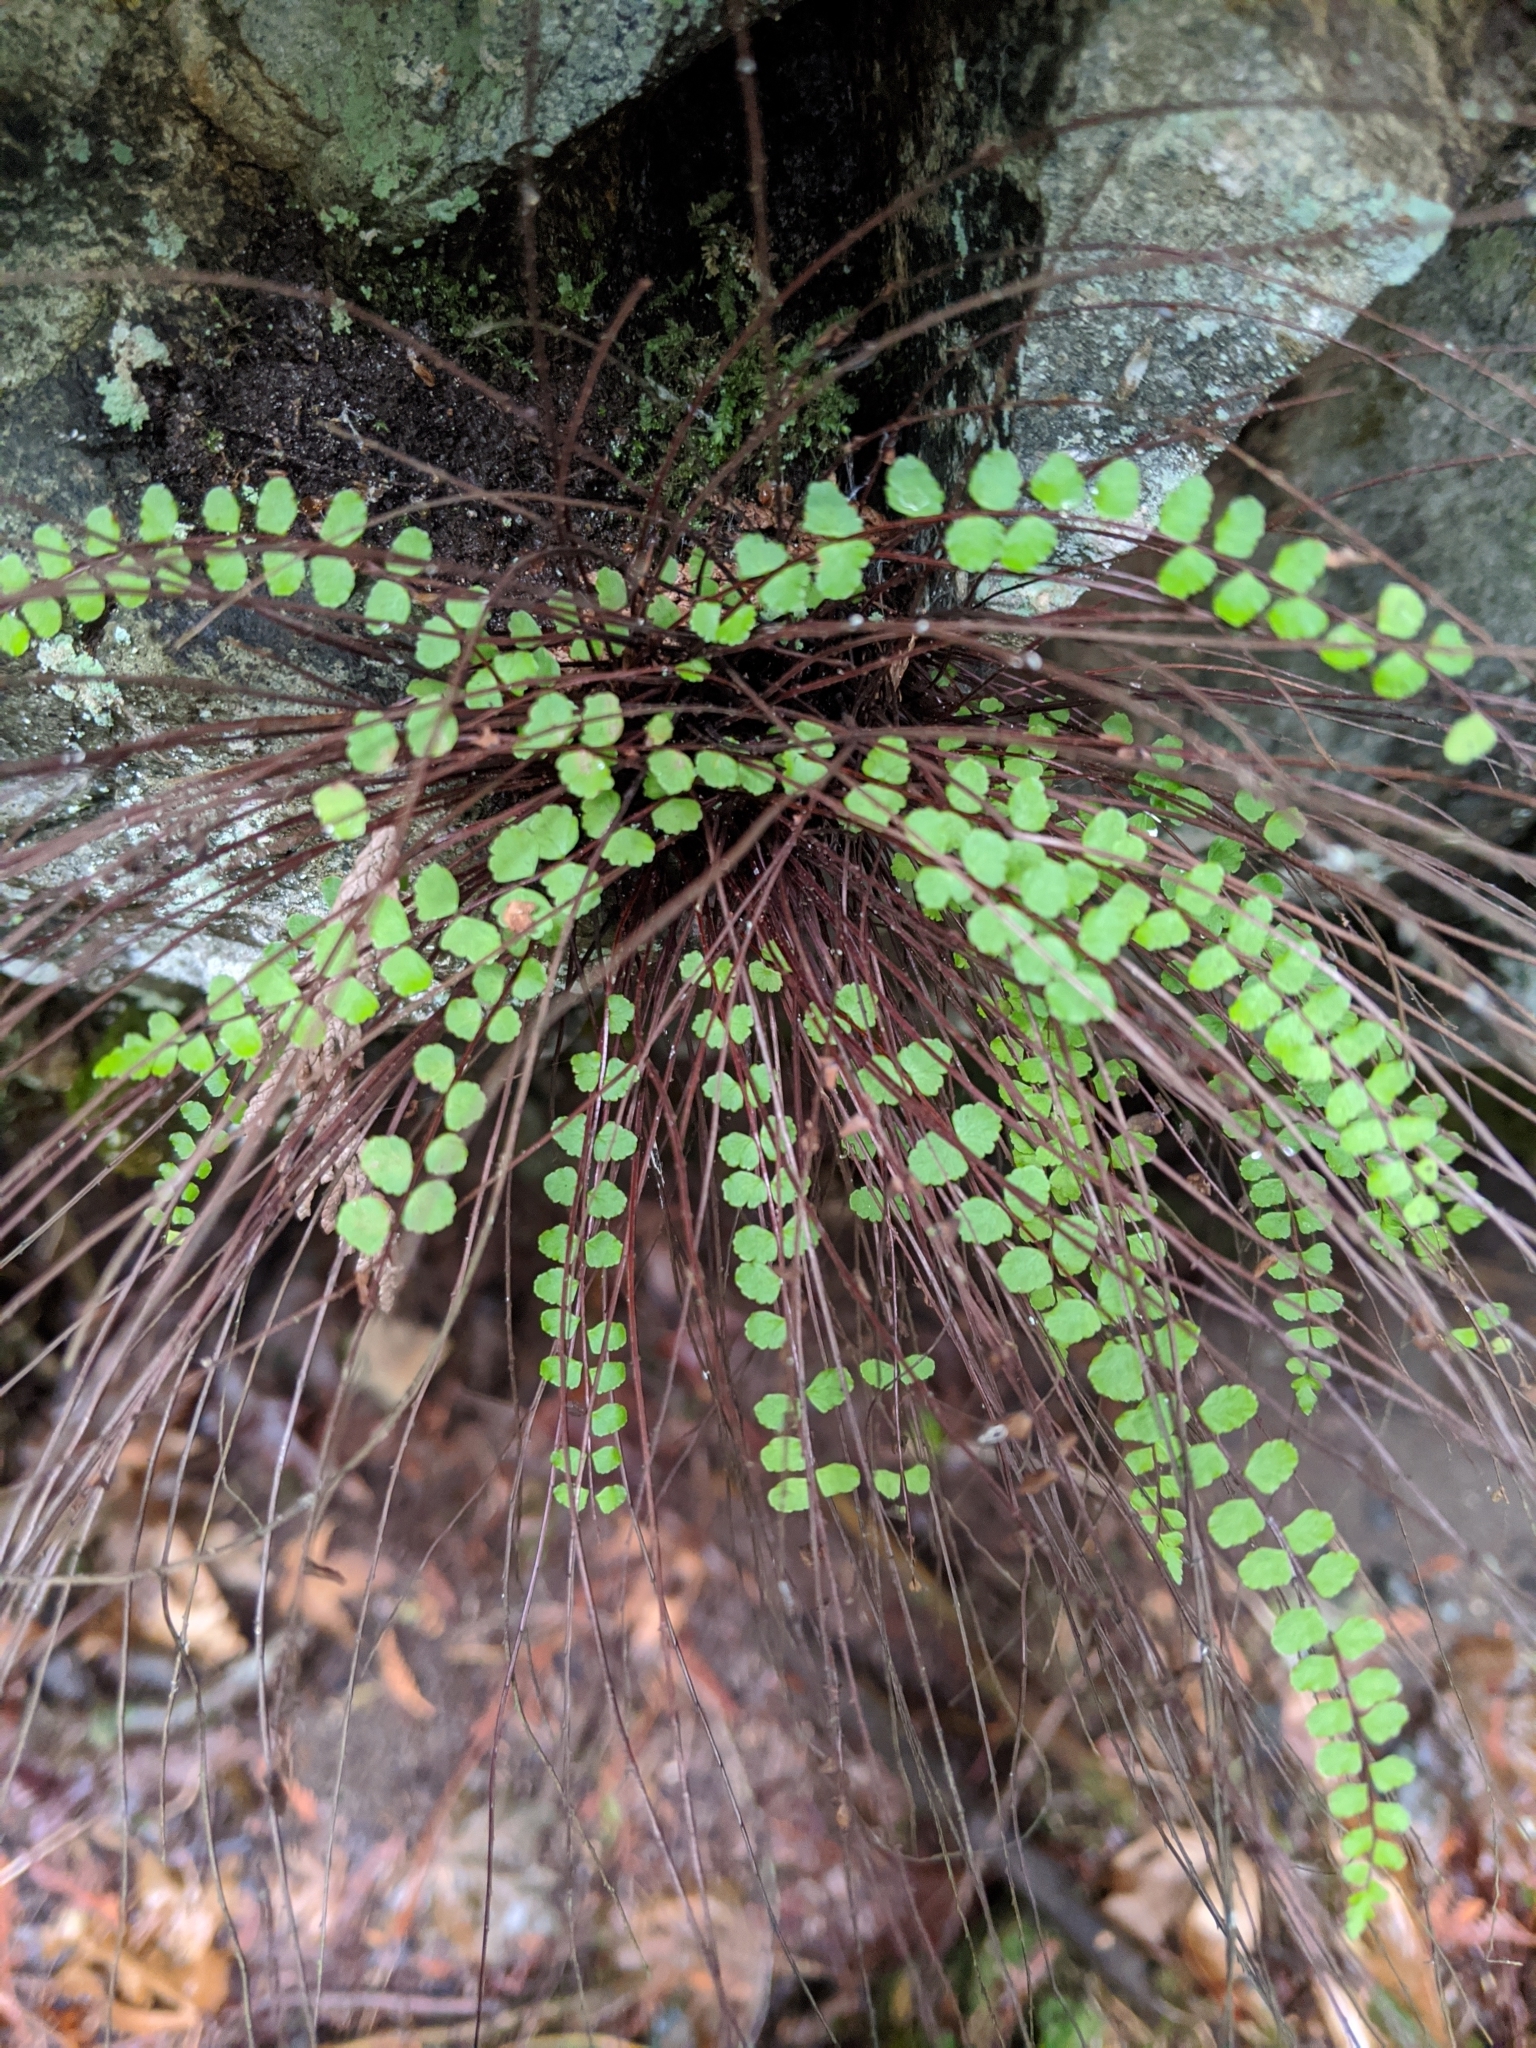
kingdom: Plantae
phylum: Tracheophyta
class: Polypodiopsida
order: Polypodiales
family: Aspleniaceae
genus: Asplenium
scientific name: Asplenium trichomanes
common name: Maidenhair spleenwort
